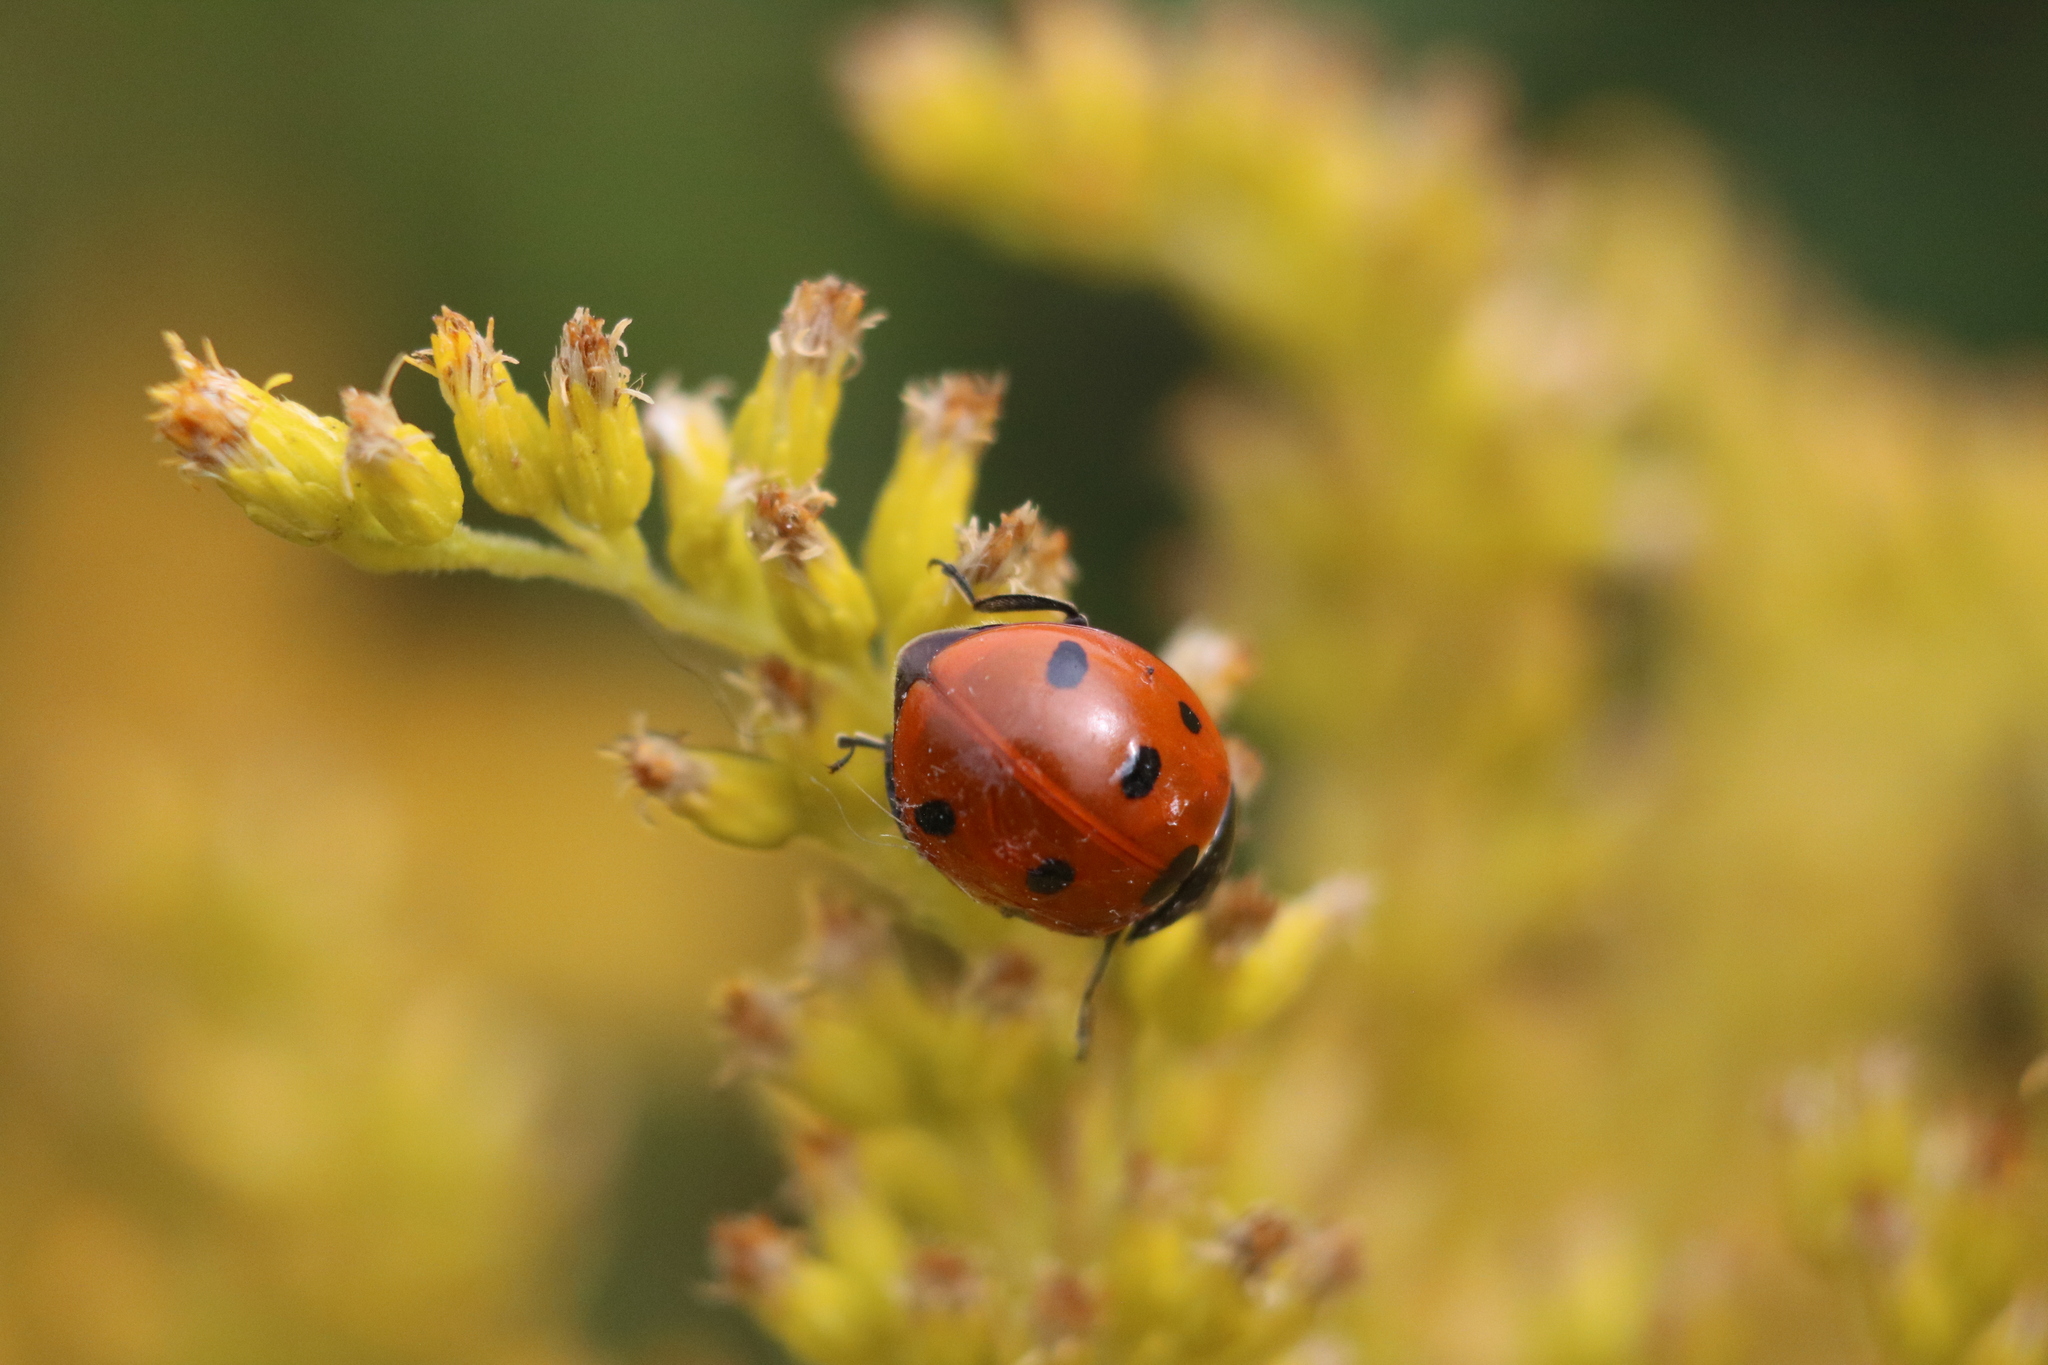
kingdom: Animalia
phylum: Arthropoda
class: Insecta
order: Coleoptera
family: Coccinellidae
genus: Coccinella
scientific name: Coccinella septempunctata
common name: Sevenspotted lady beetle
